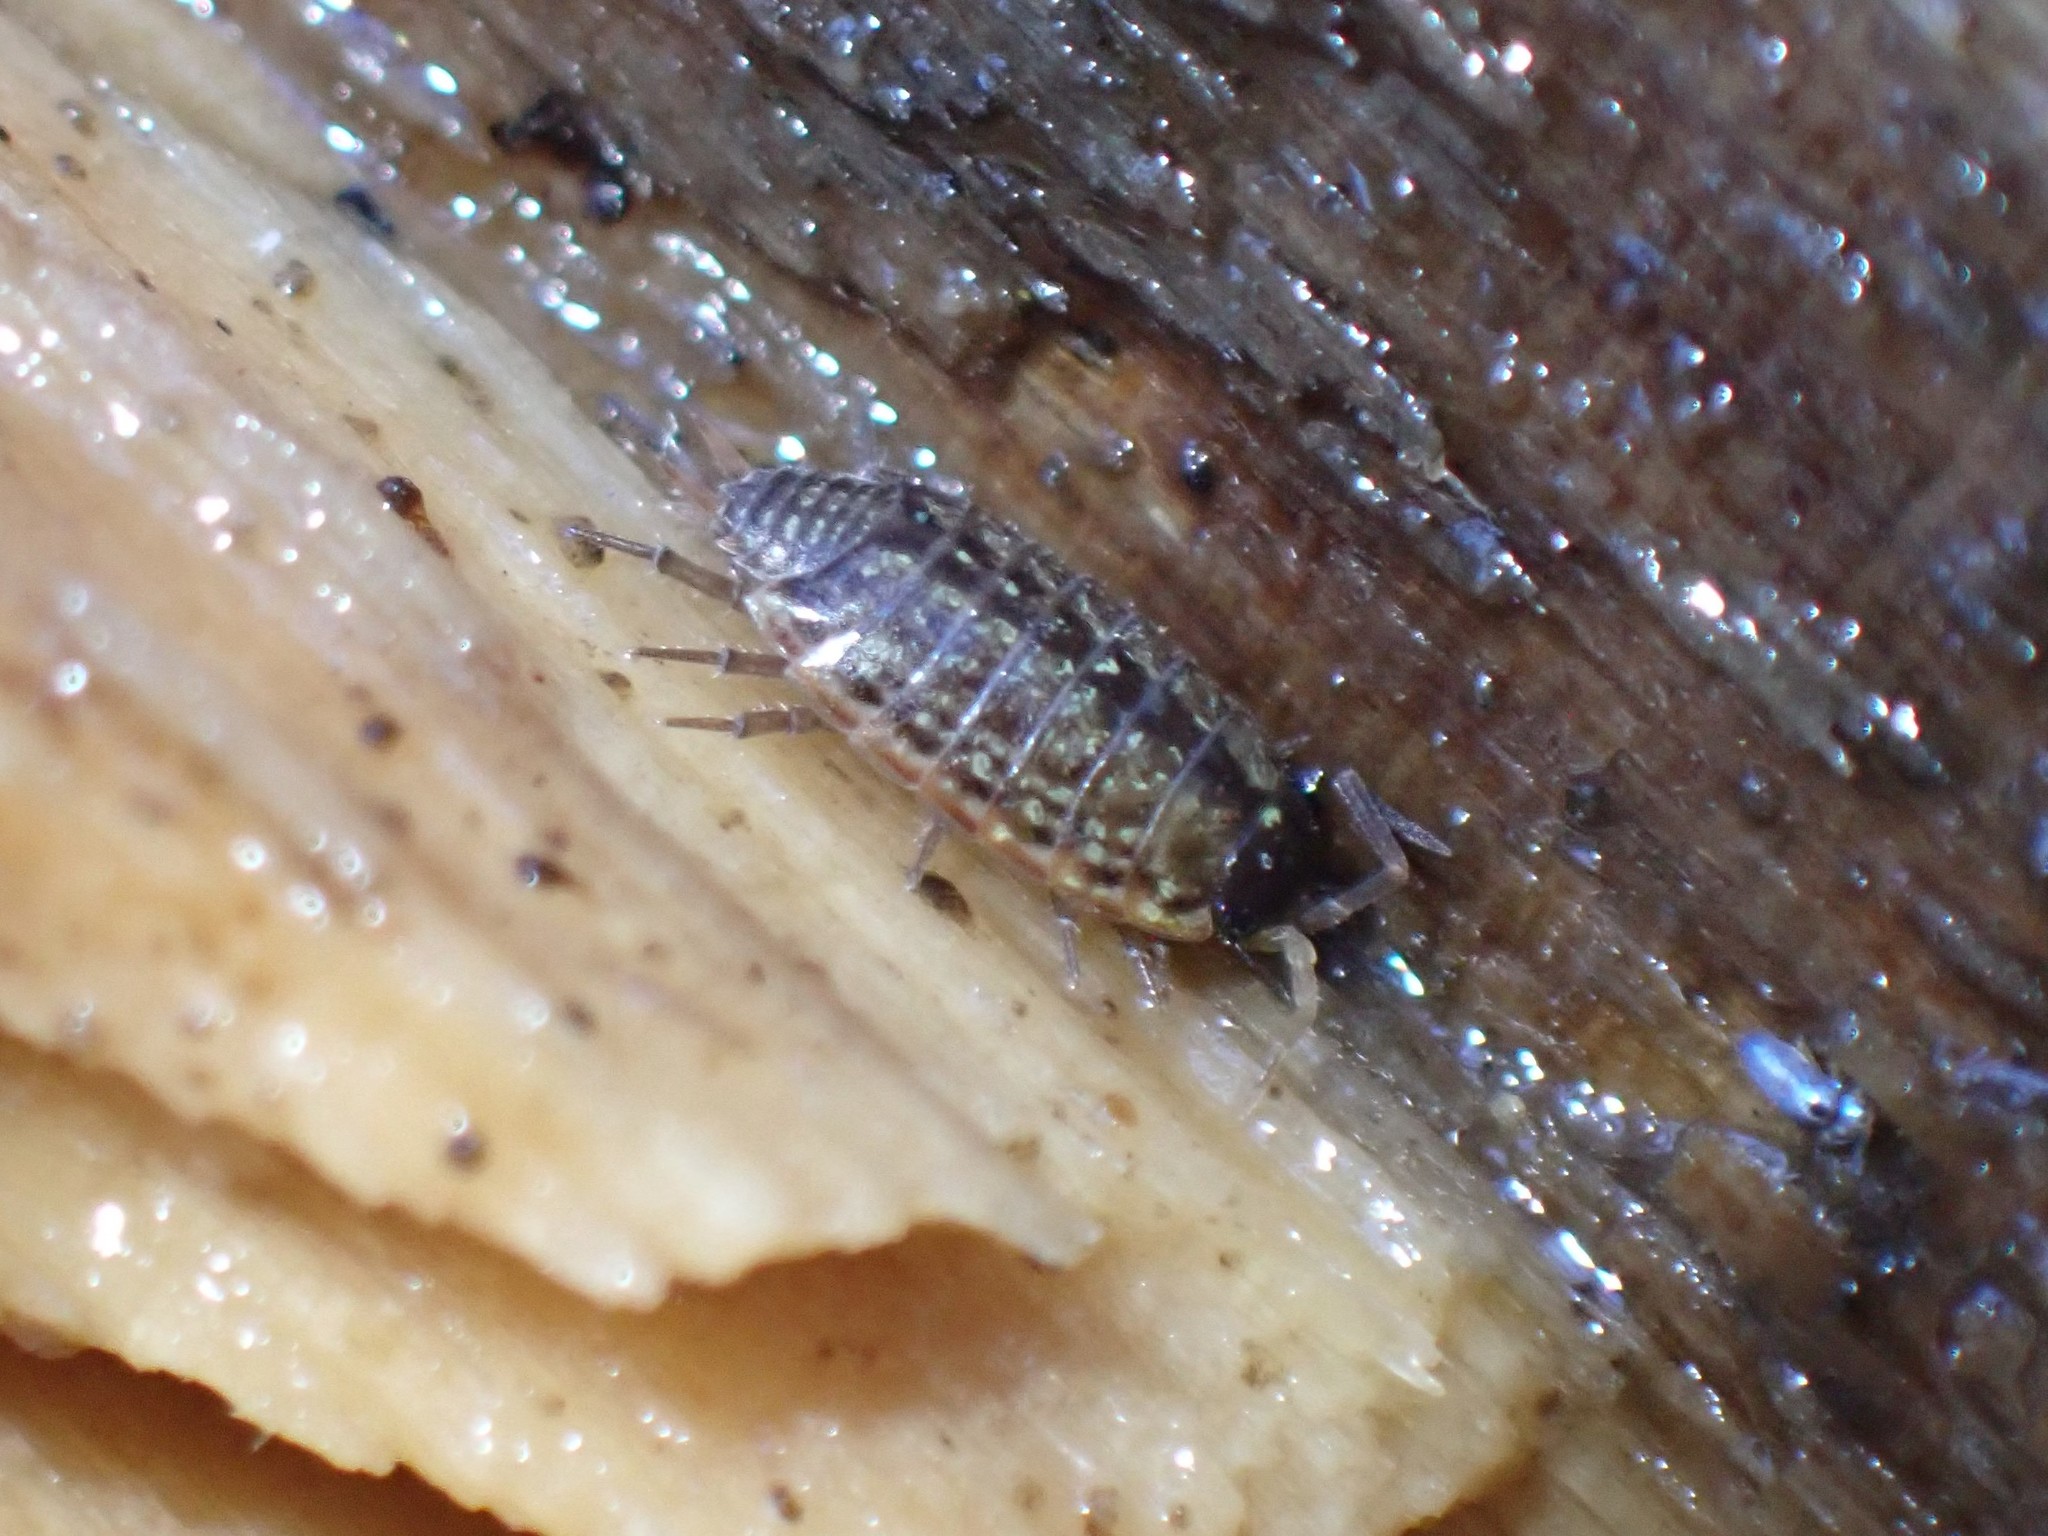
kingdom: Animalia
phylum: Arthropoda
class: Malacostraca
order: Isopoda
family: Philosciidae
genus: Philoscia
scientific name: Philoscia muscorum
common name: Common striped woodlouse
